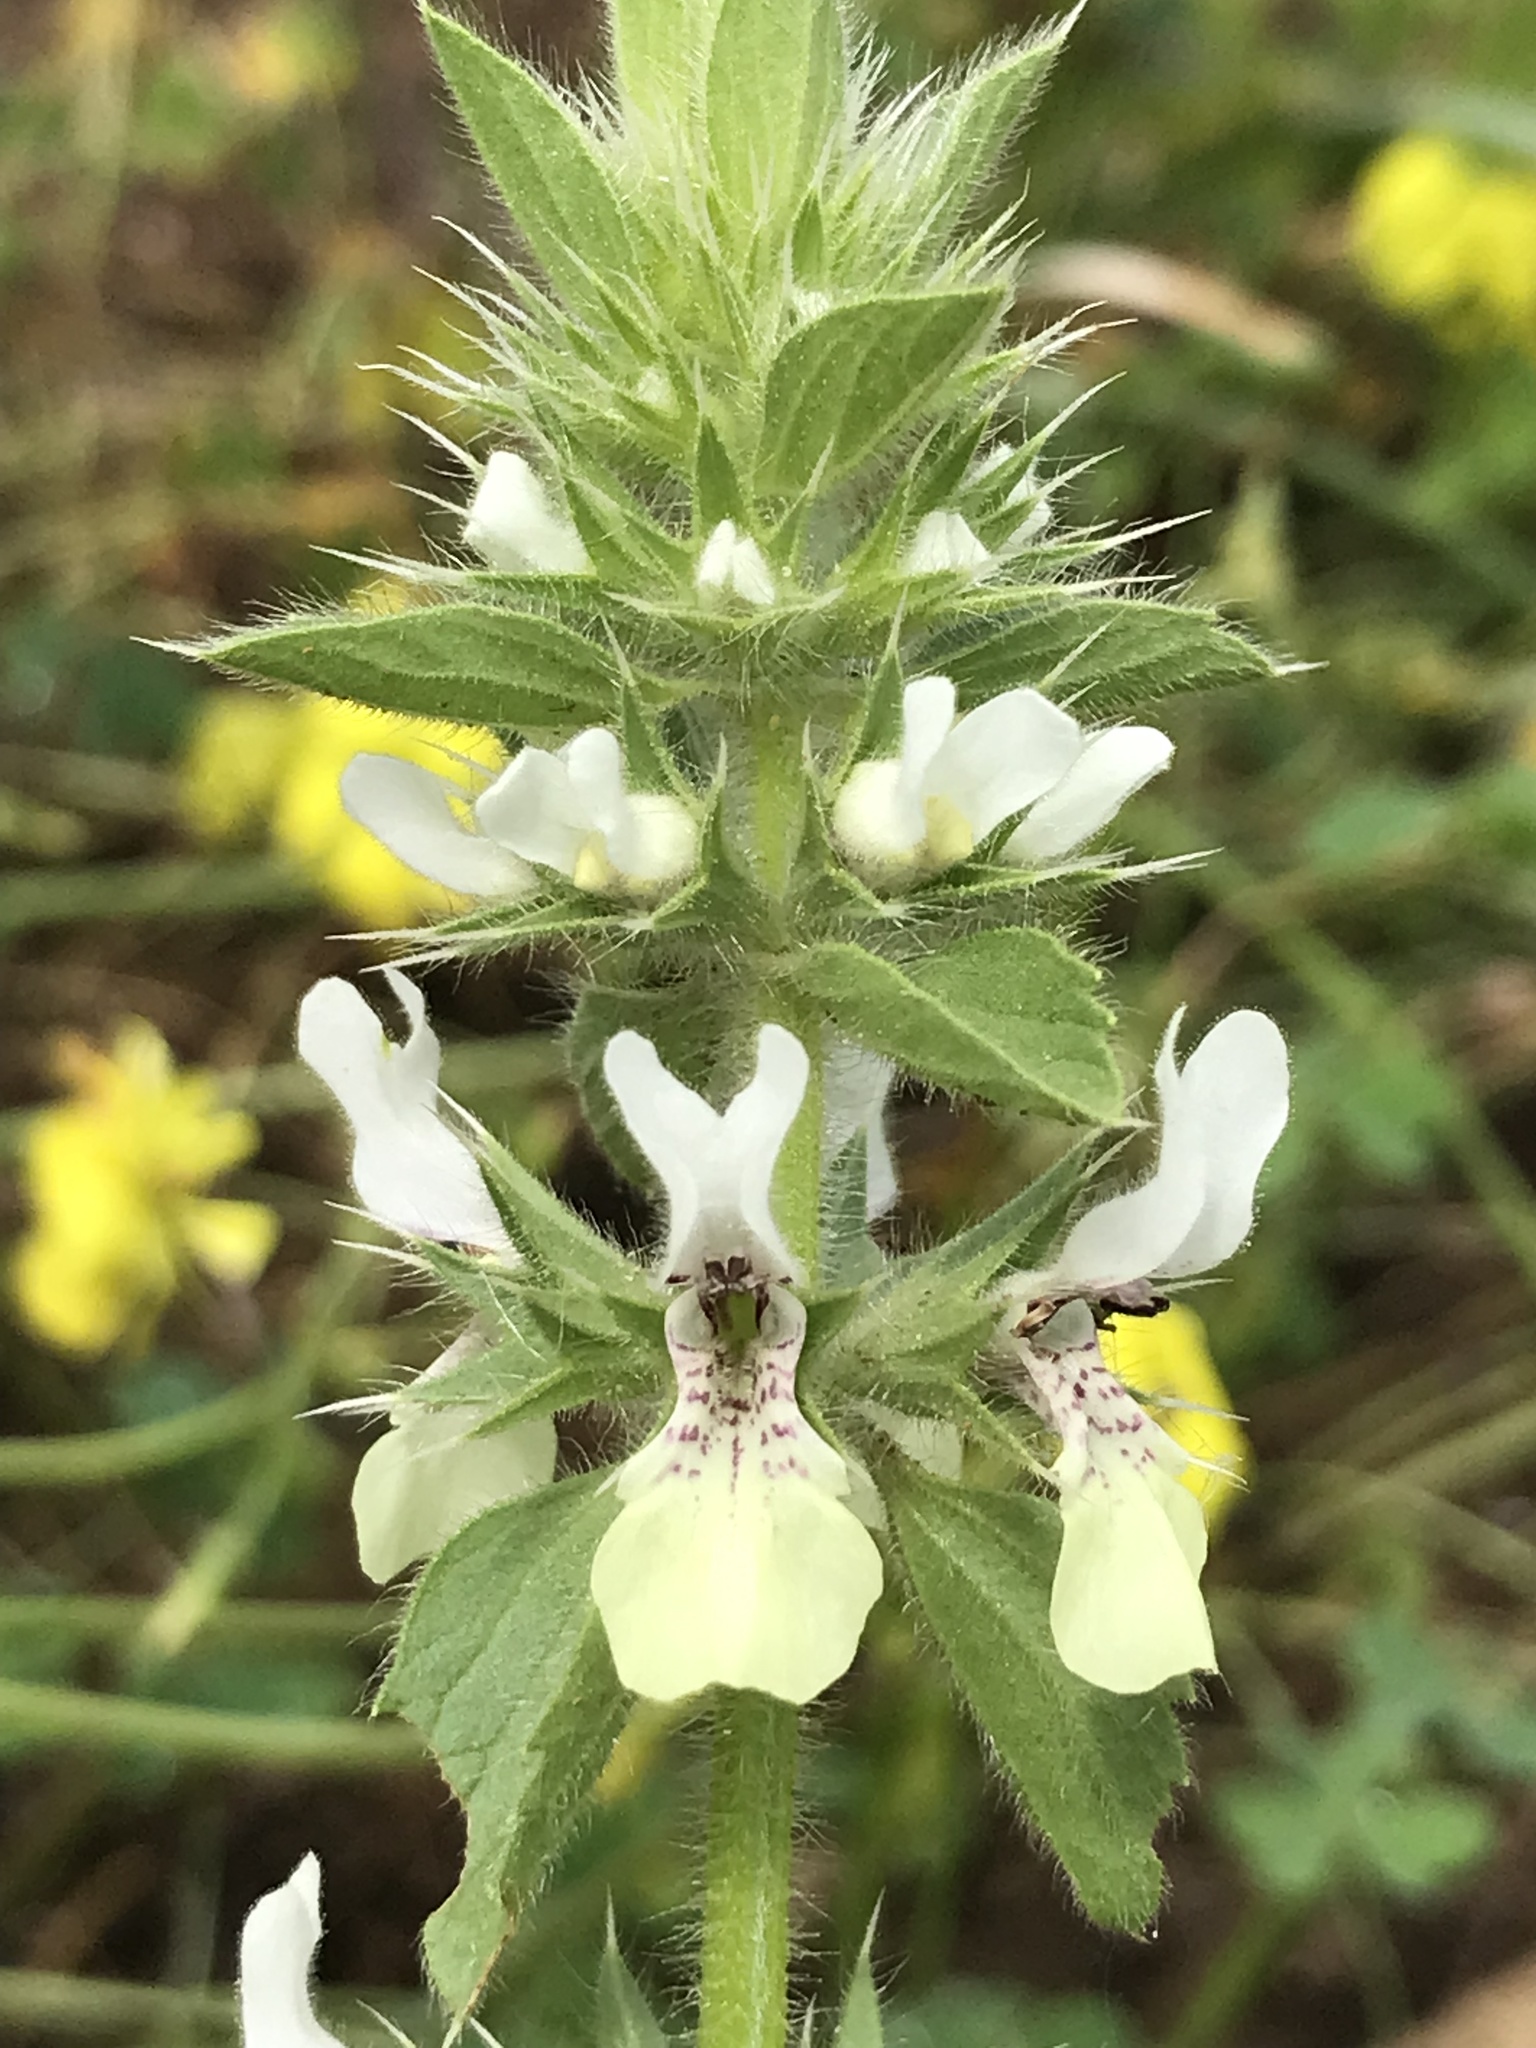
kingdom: Plantae
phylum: Tracheophyta
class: Magnoliopsida
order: Lamiales
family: Lamiaceae
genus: Stachys
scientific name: Stachys ocymastrum
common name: Italian hedgenettle
